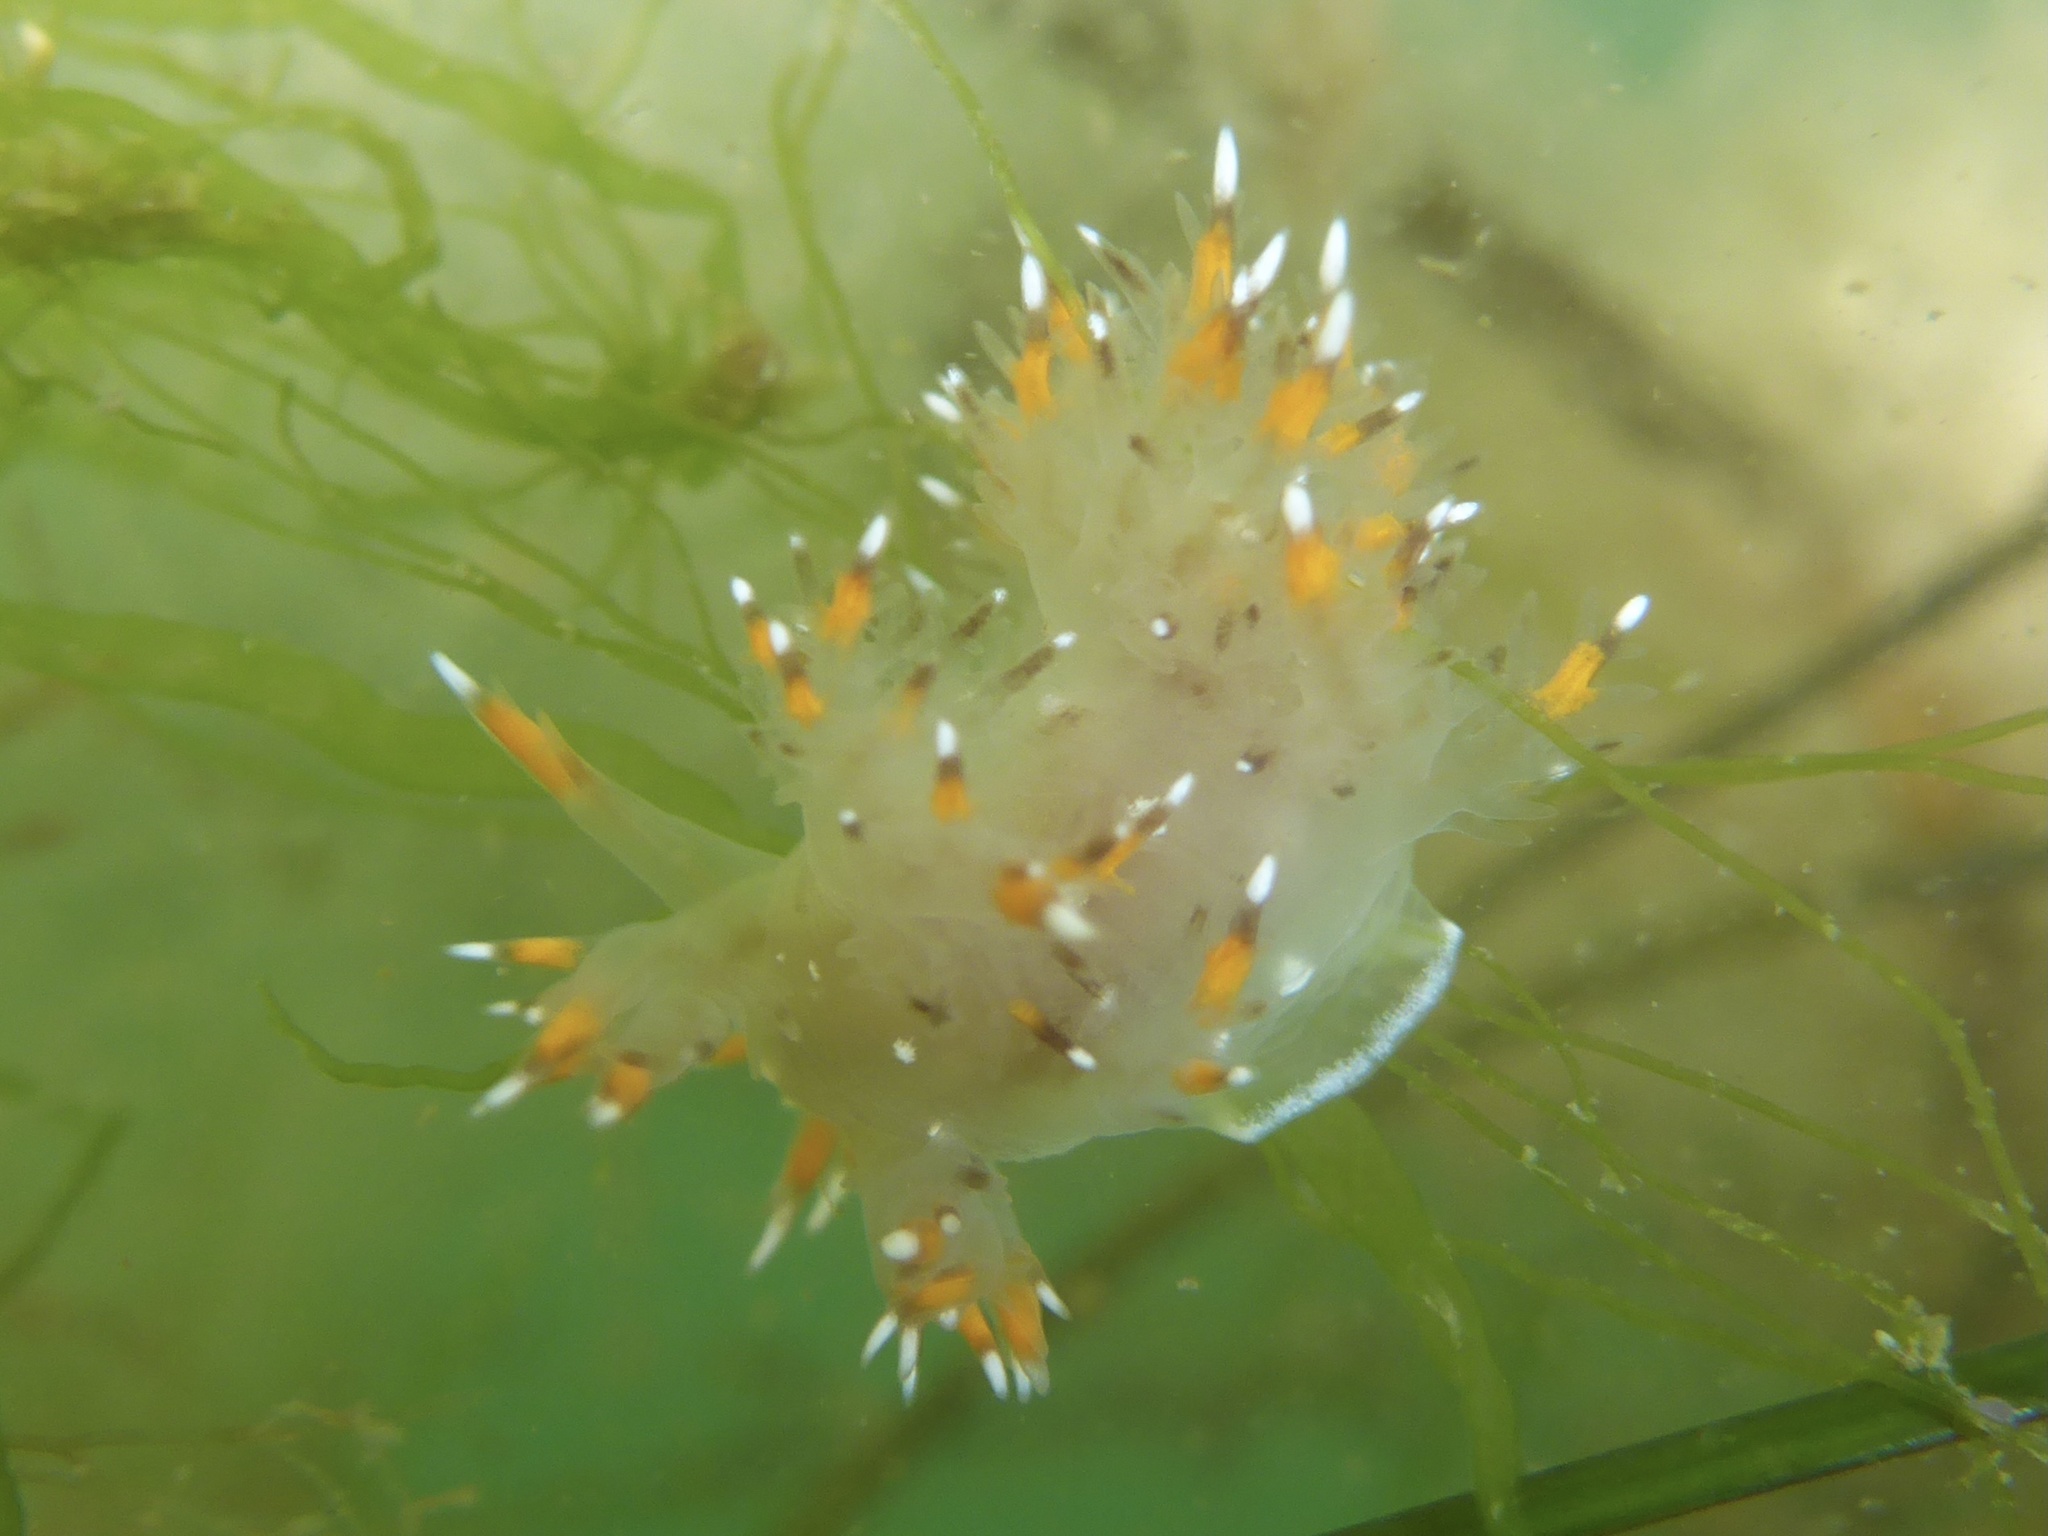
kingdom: Animalia
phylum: Mollusca
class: Gastropoda
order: Nudibranchia
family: Dendronotidae
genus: Dendronotus
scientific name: Dendronotus iris
